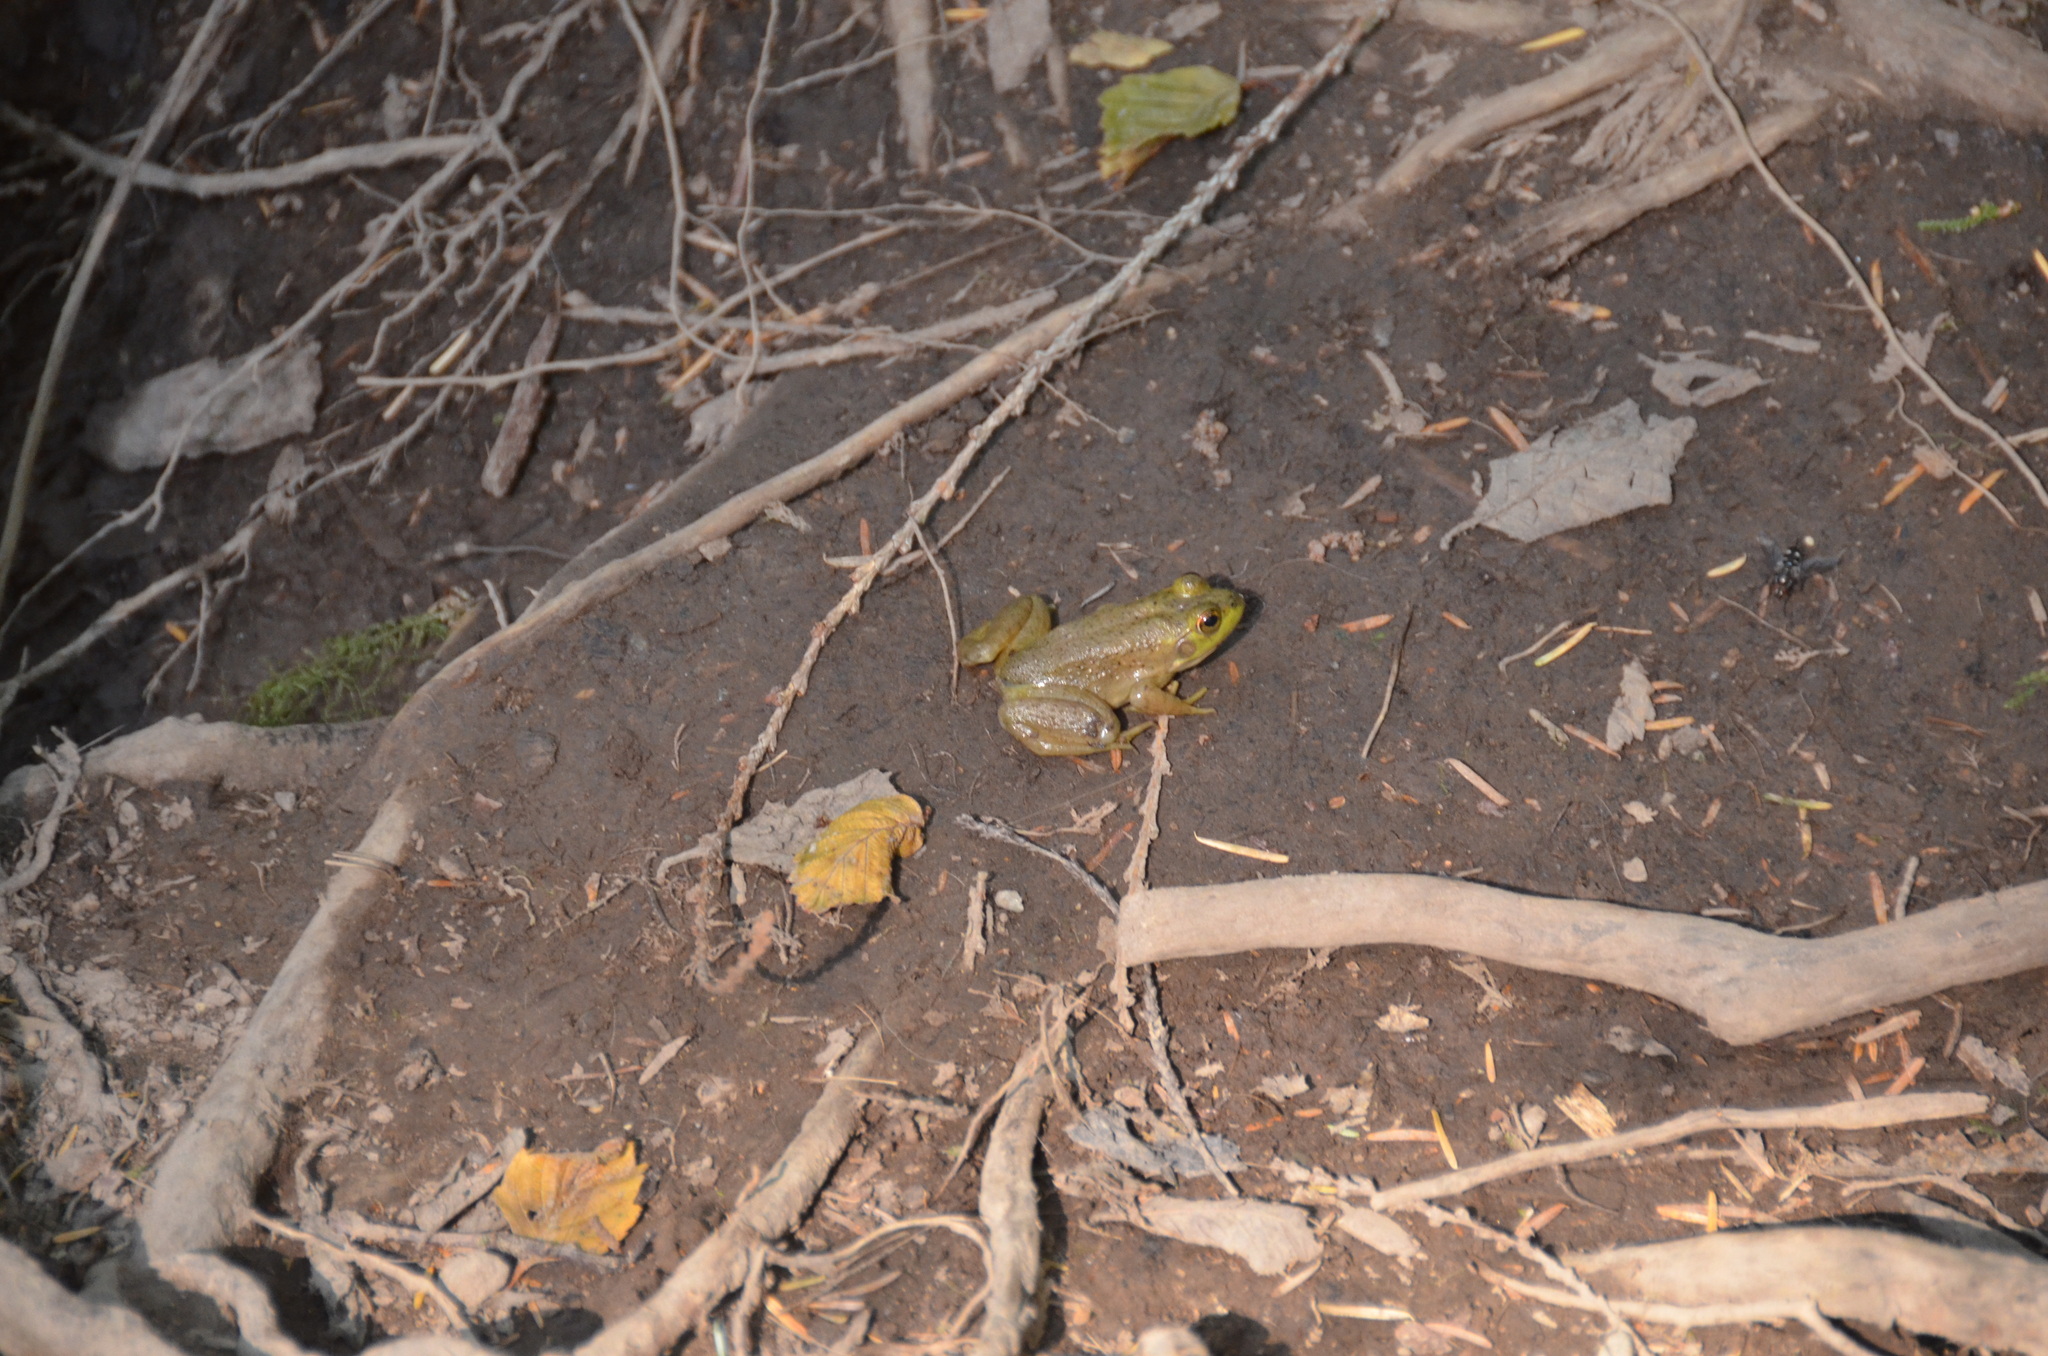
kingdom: Animalia
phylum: Chordata
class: Amphibia
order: Anura
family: Ranidae
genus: Lithobates
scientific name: Lithobates catesbeianus
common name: American bullfrog
